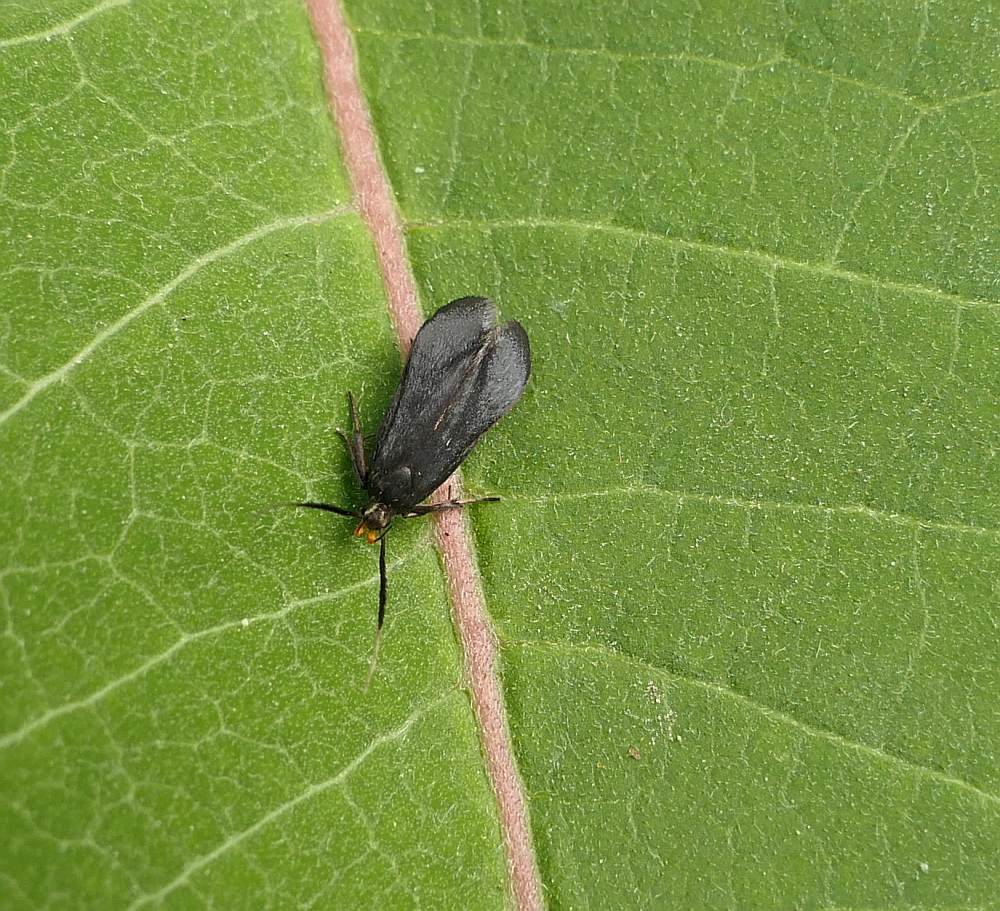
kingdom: Animalia
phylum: Arthropoda
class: Insecta
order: Lepidoptera
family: Gelechiidae
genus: Dichomeris
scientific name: Dichomeris nonstrigella
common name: Little devil moth
